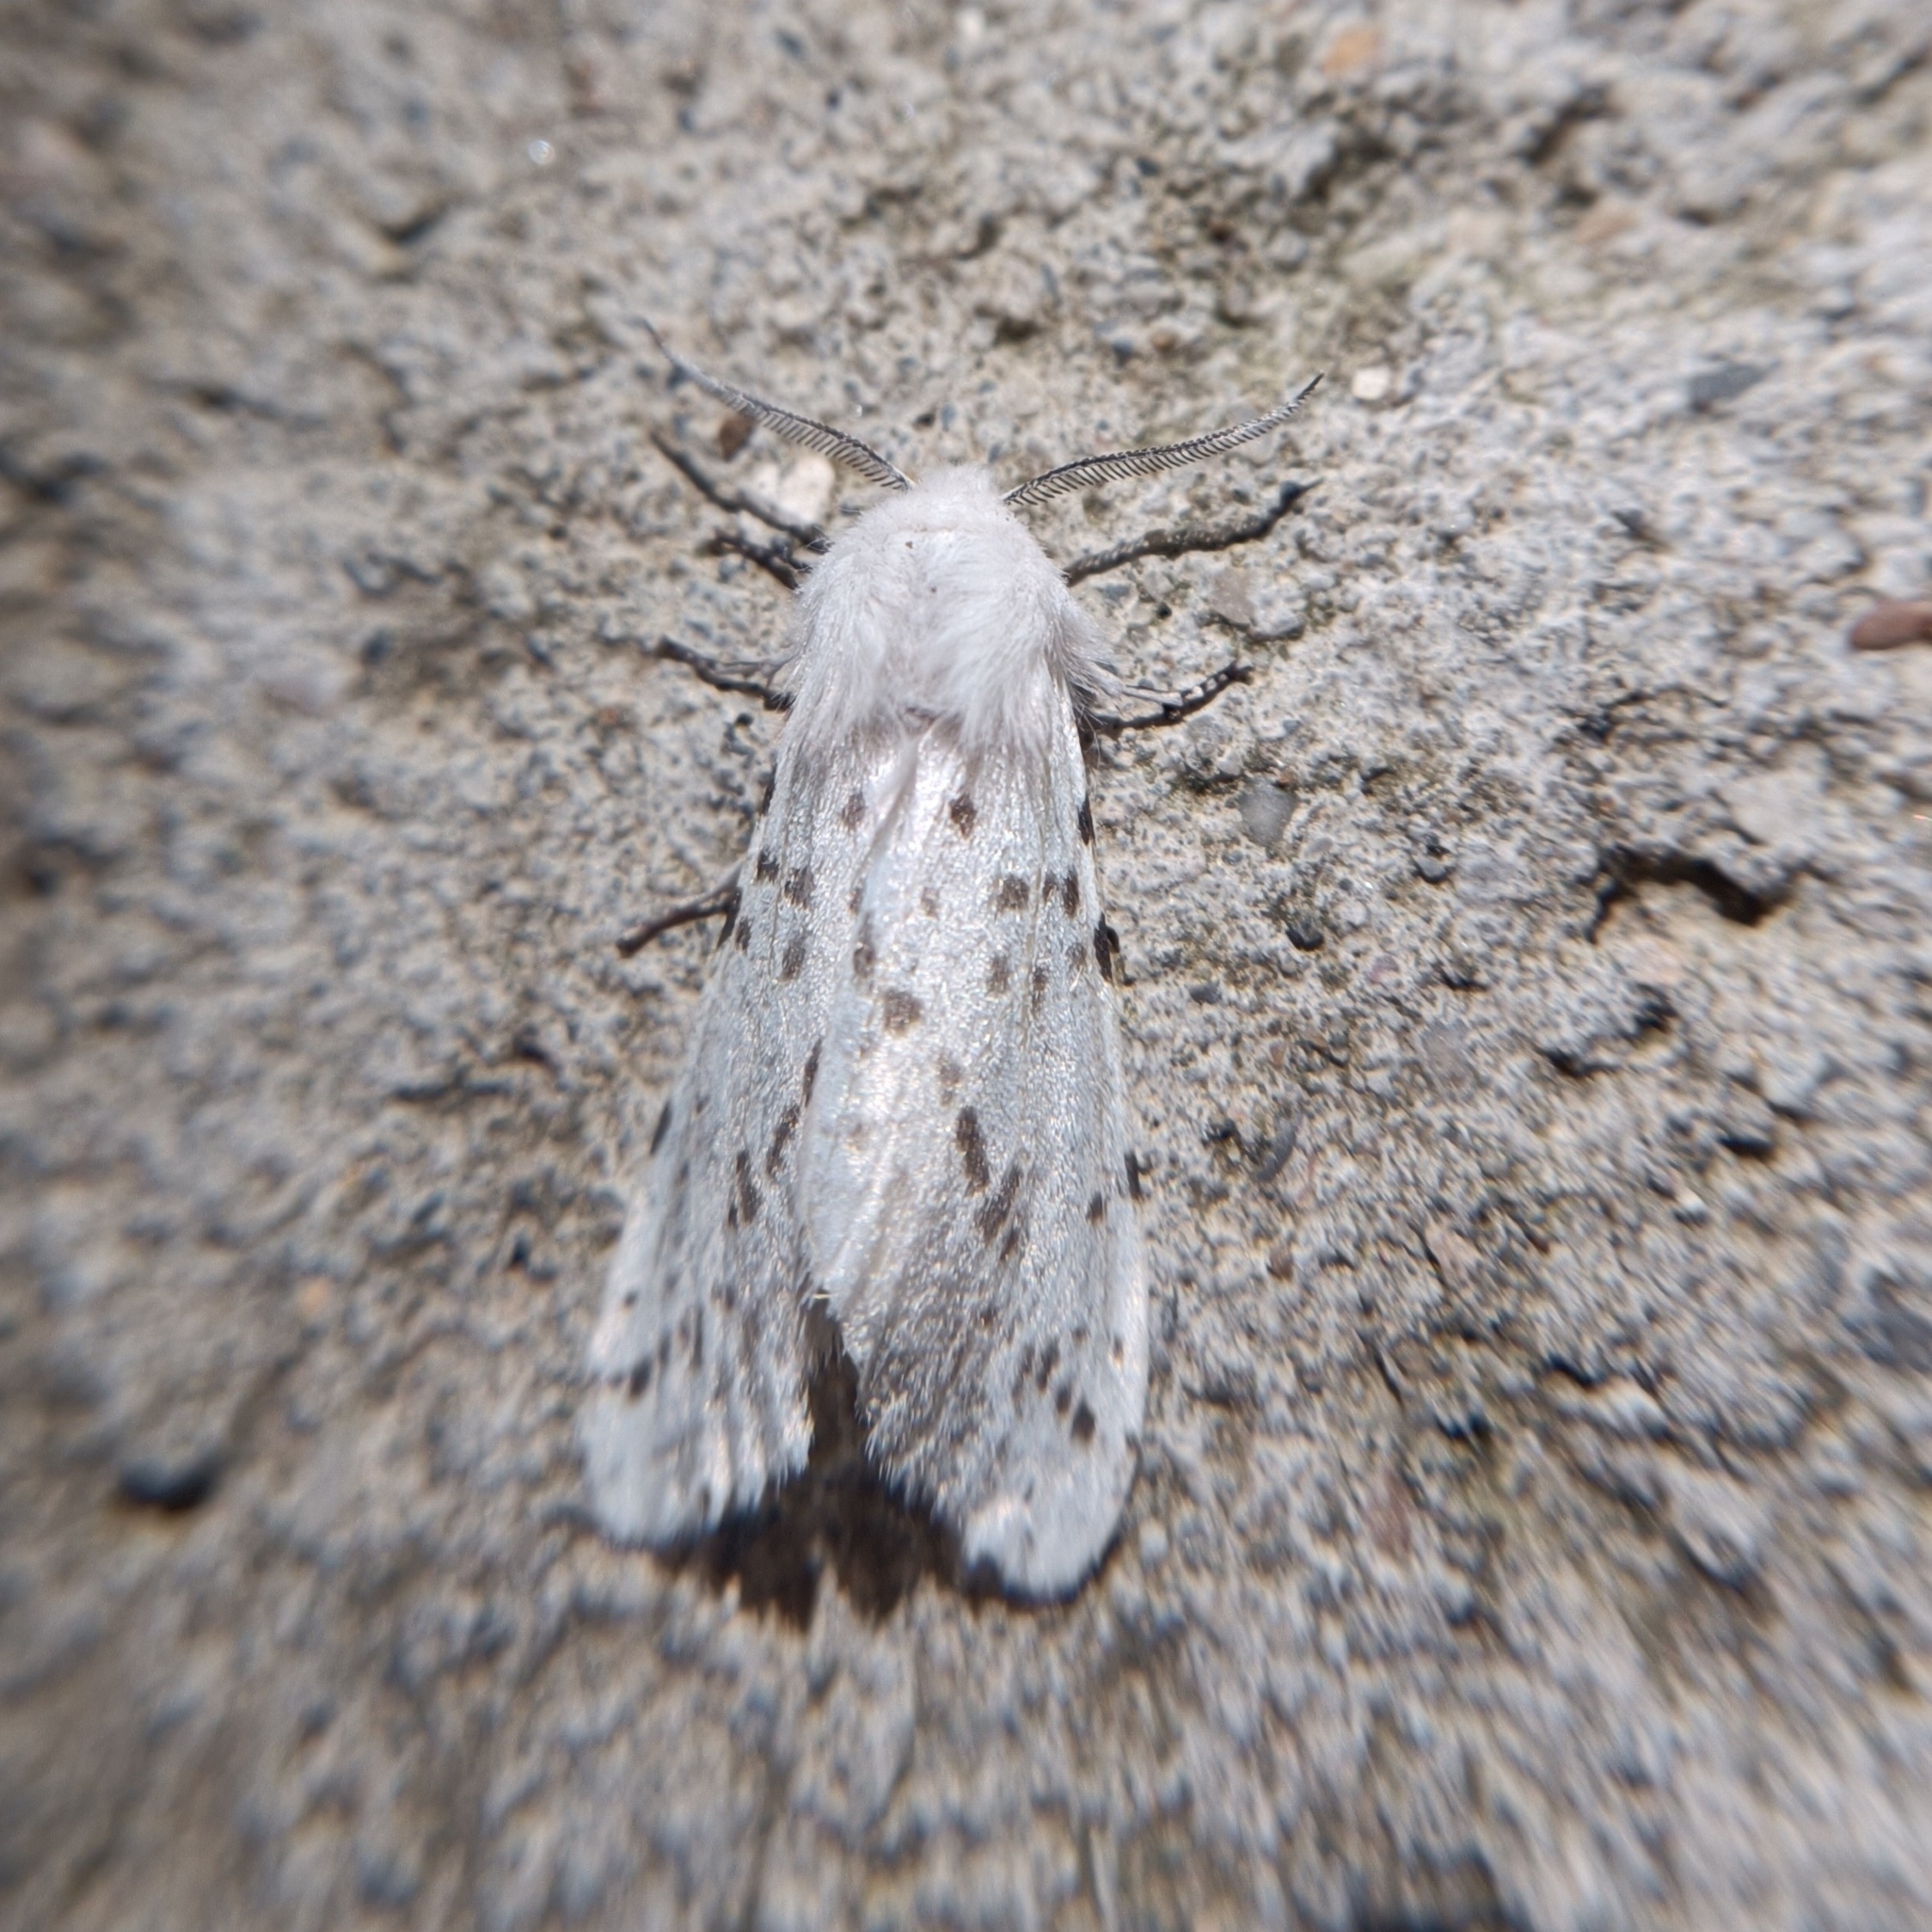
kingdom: Animalia
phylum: Arthropoda
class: Insecta
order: Lepidoptera
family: Erebidae
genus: Hyphantria
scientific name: Hyphantria cunea
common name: American white moth
